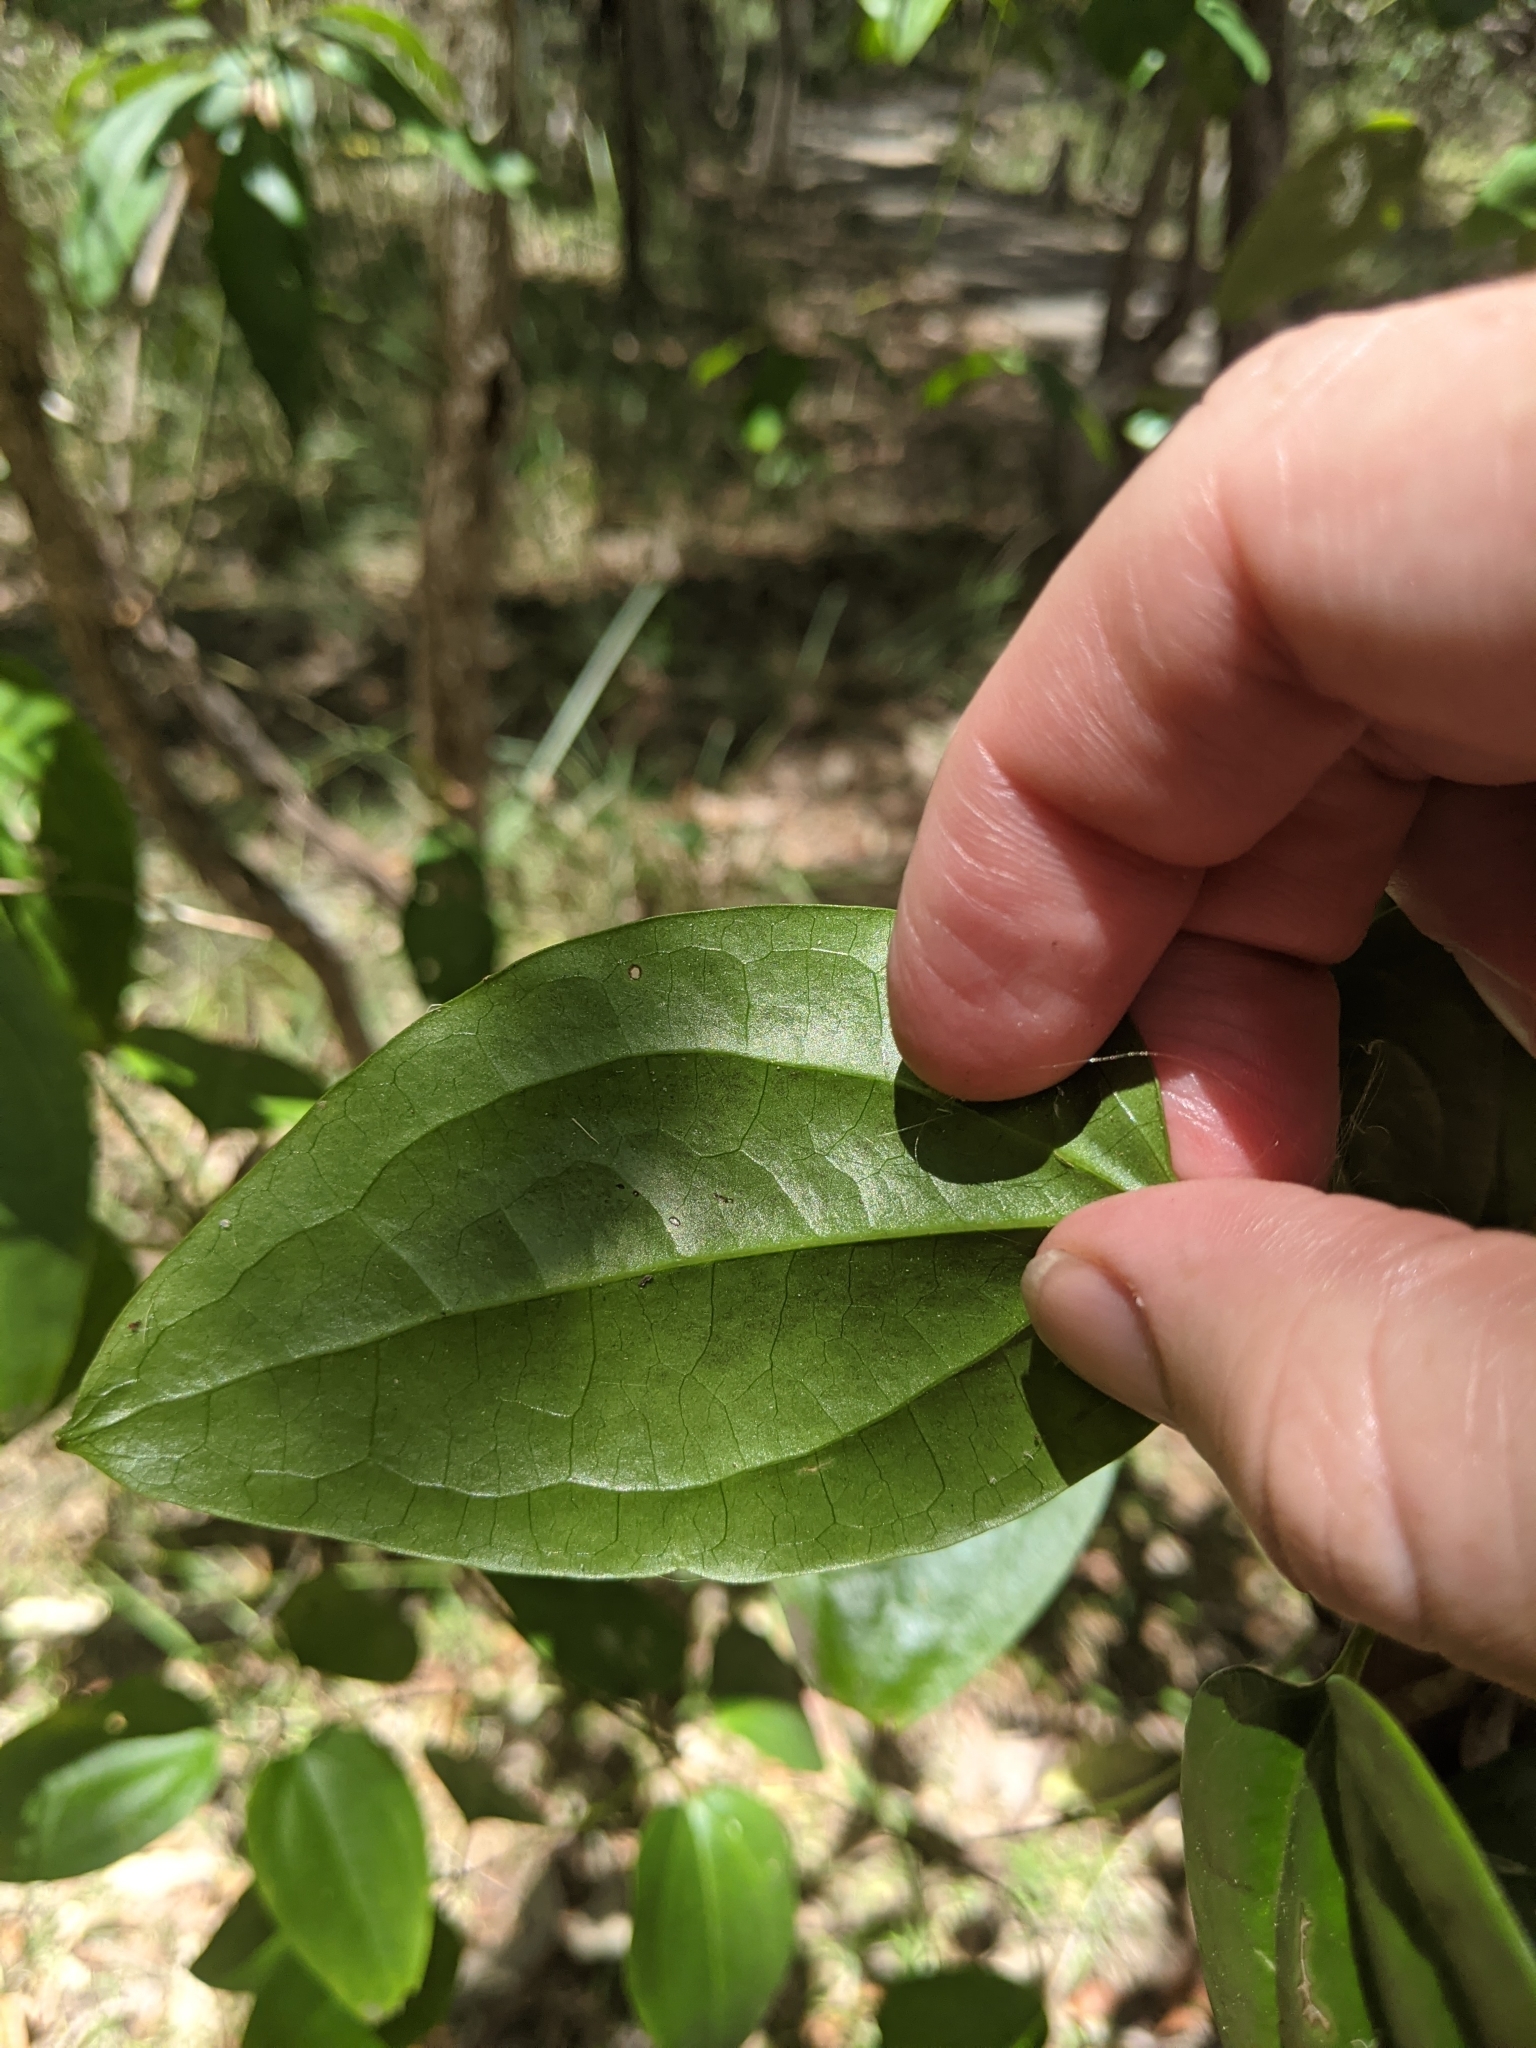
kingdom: Plantae
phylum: Tracheophyta
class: Magnoliopsida
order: Ranunculales
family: Ranunculaceae
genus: Clematis
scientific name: Clematis glycinoides
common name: Forest clematis
